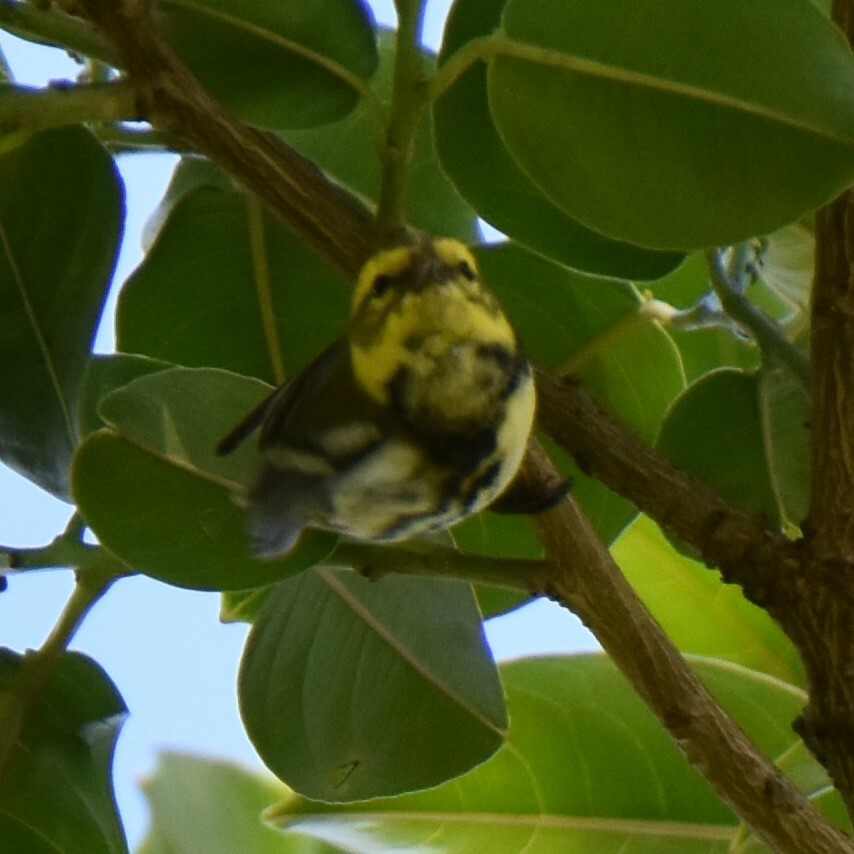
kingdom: Animalia
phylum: Chordata
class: Aves
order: Passeriformes
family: Parulidae
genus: Setophaga
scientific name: Setophaga townsendi
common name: Townsend's warbler
